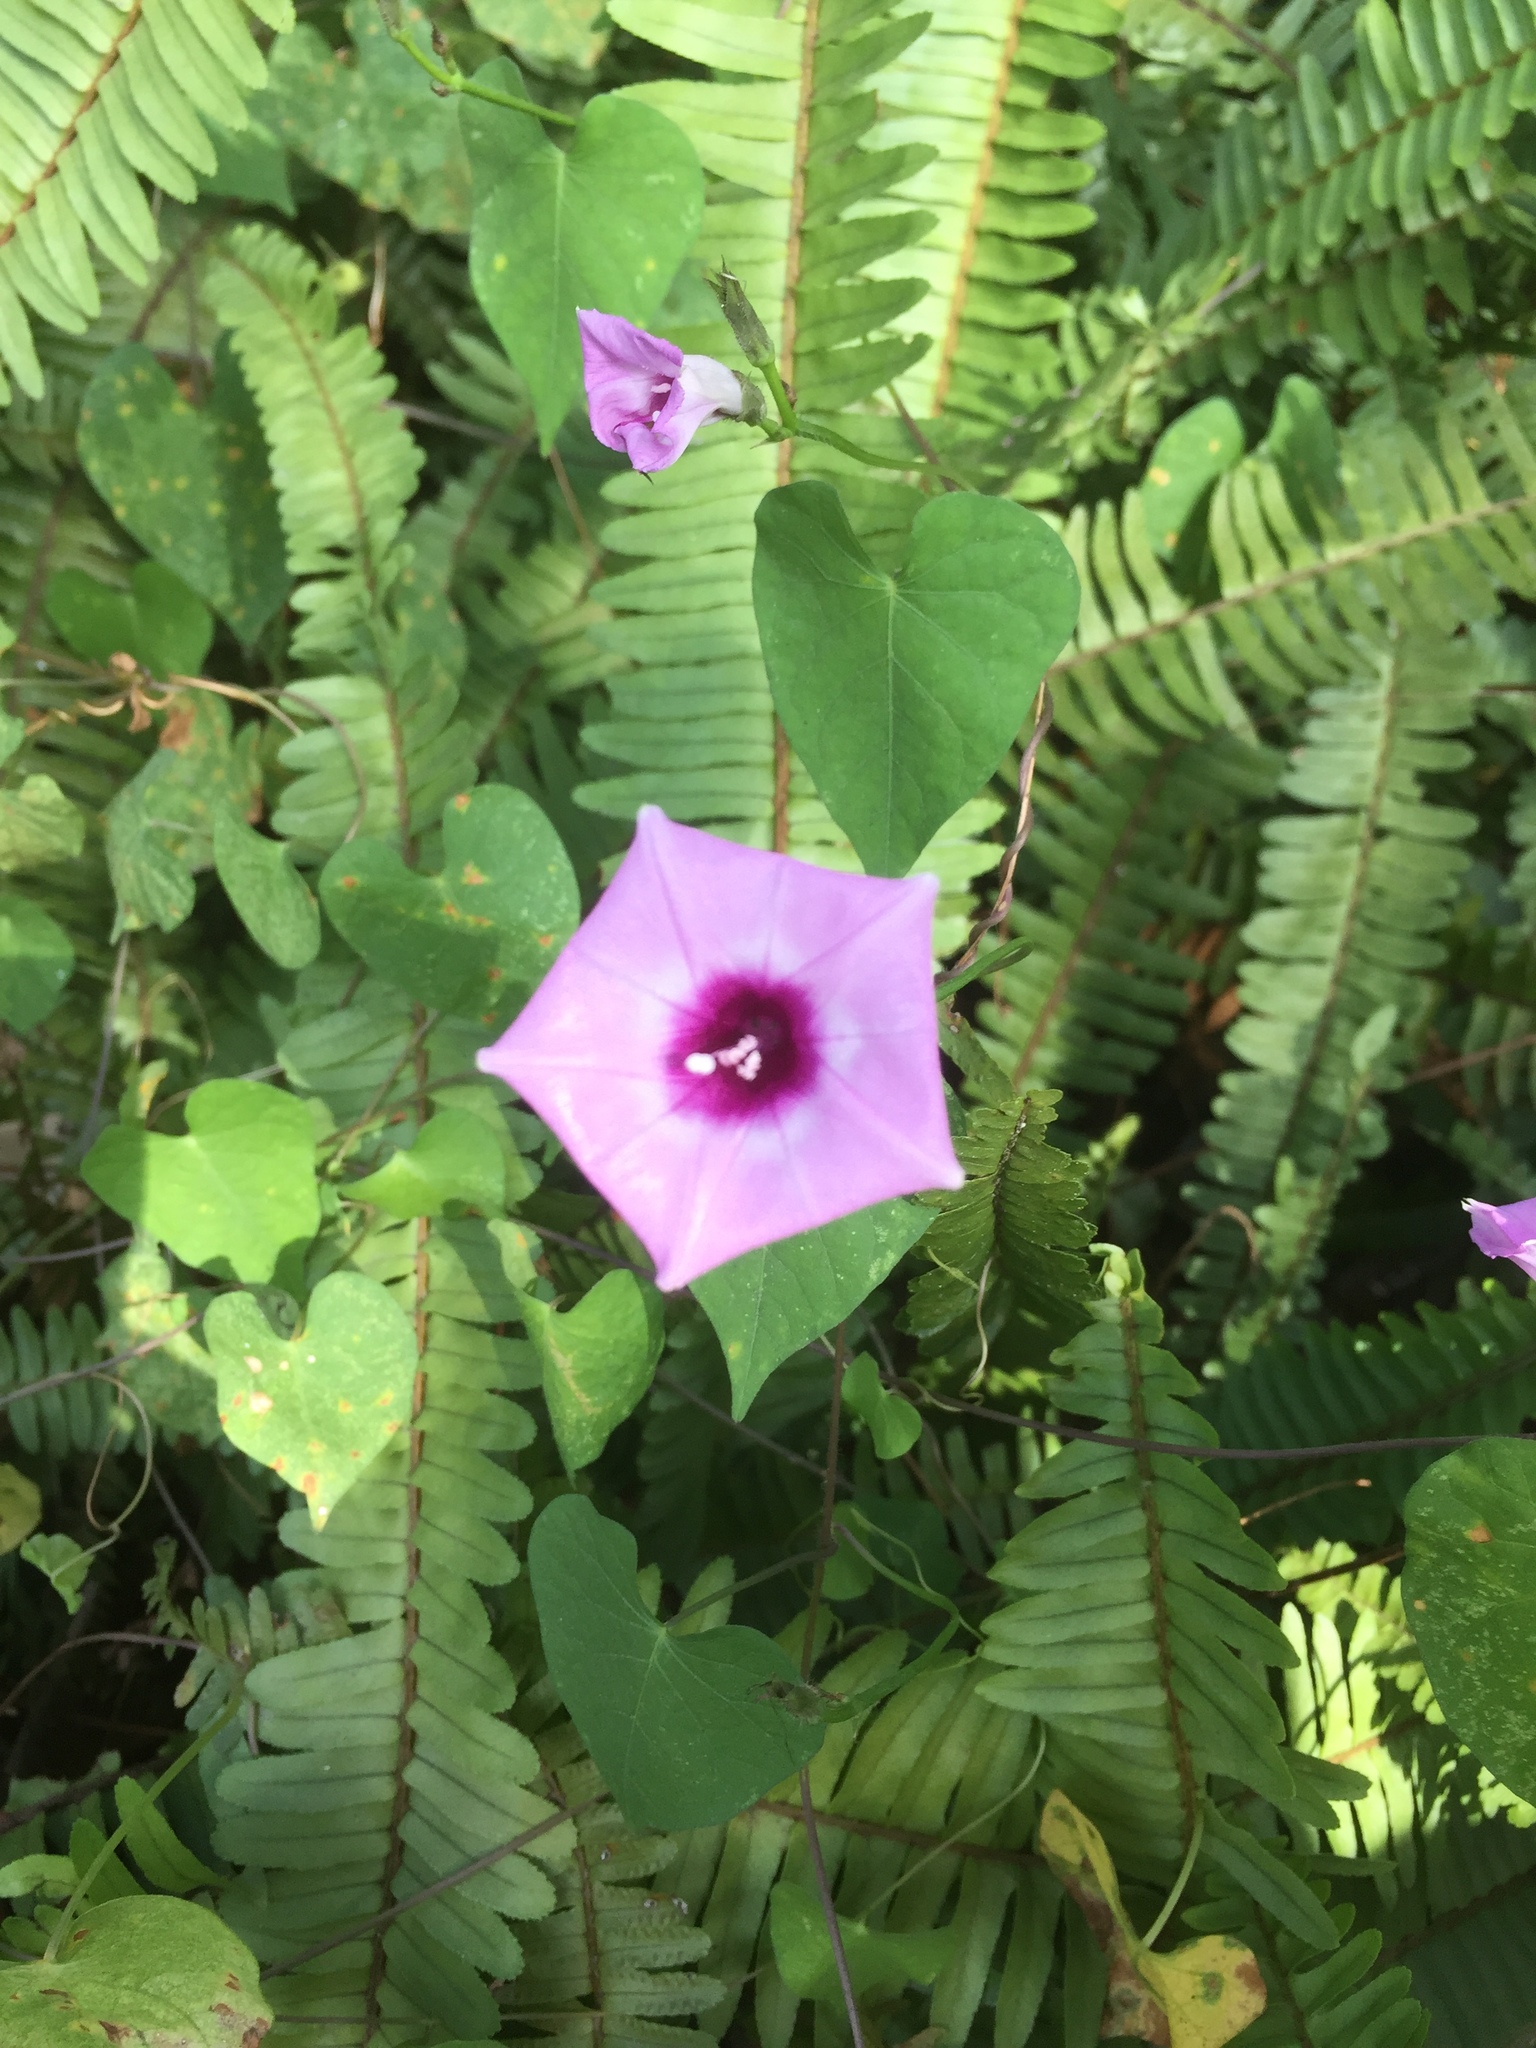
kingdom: Plantae
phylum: Tracheophyta
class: Magnoliopsida
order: Solanales
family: Convolvulaceae
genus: Ipomoea
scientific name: Ipomoea cordatotriloba
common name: Cotton morning glory
